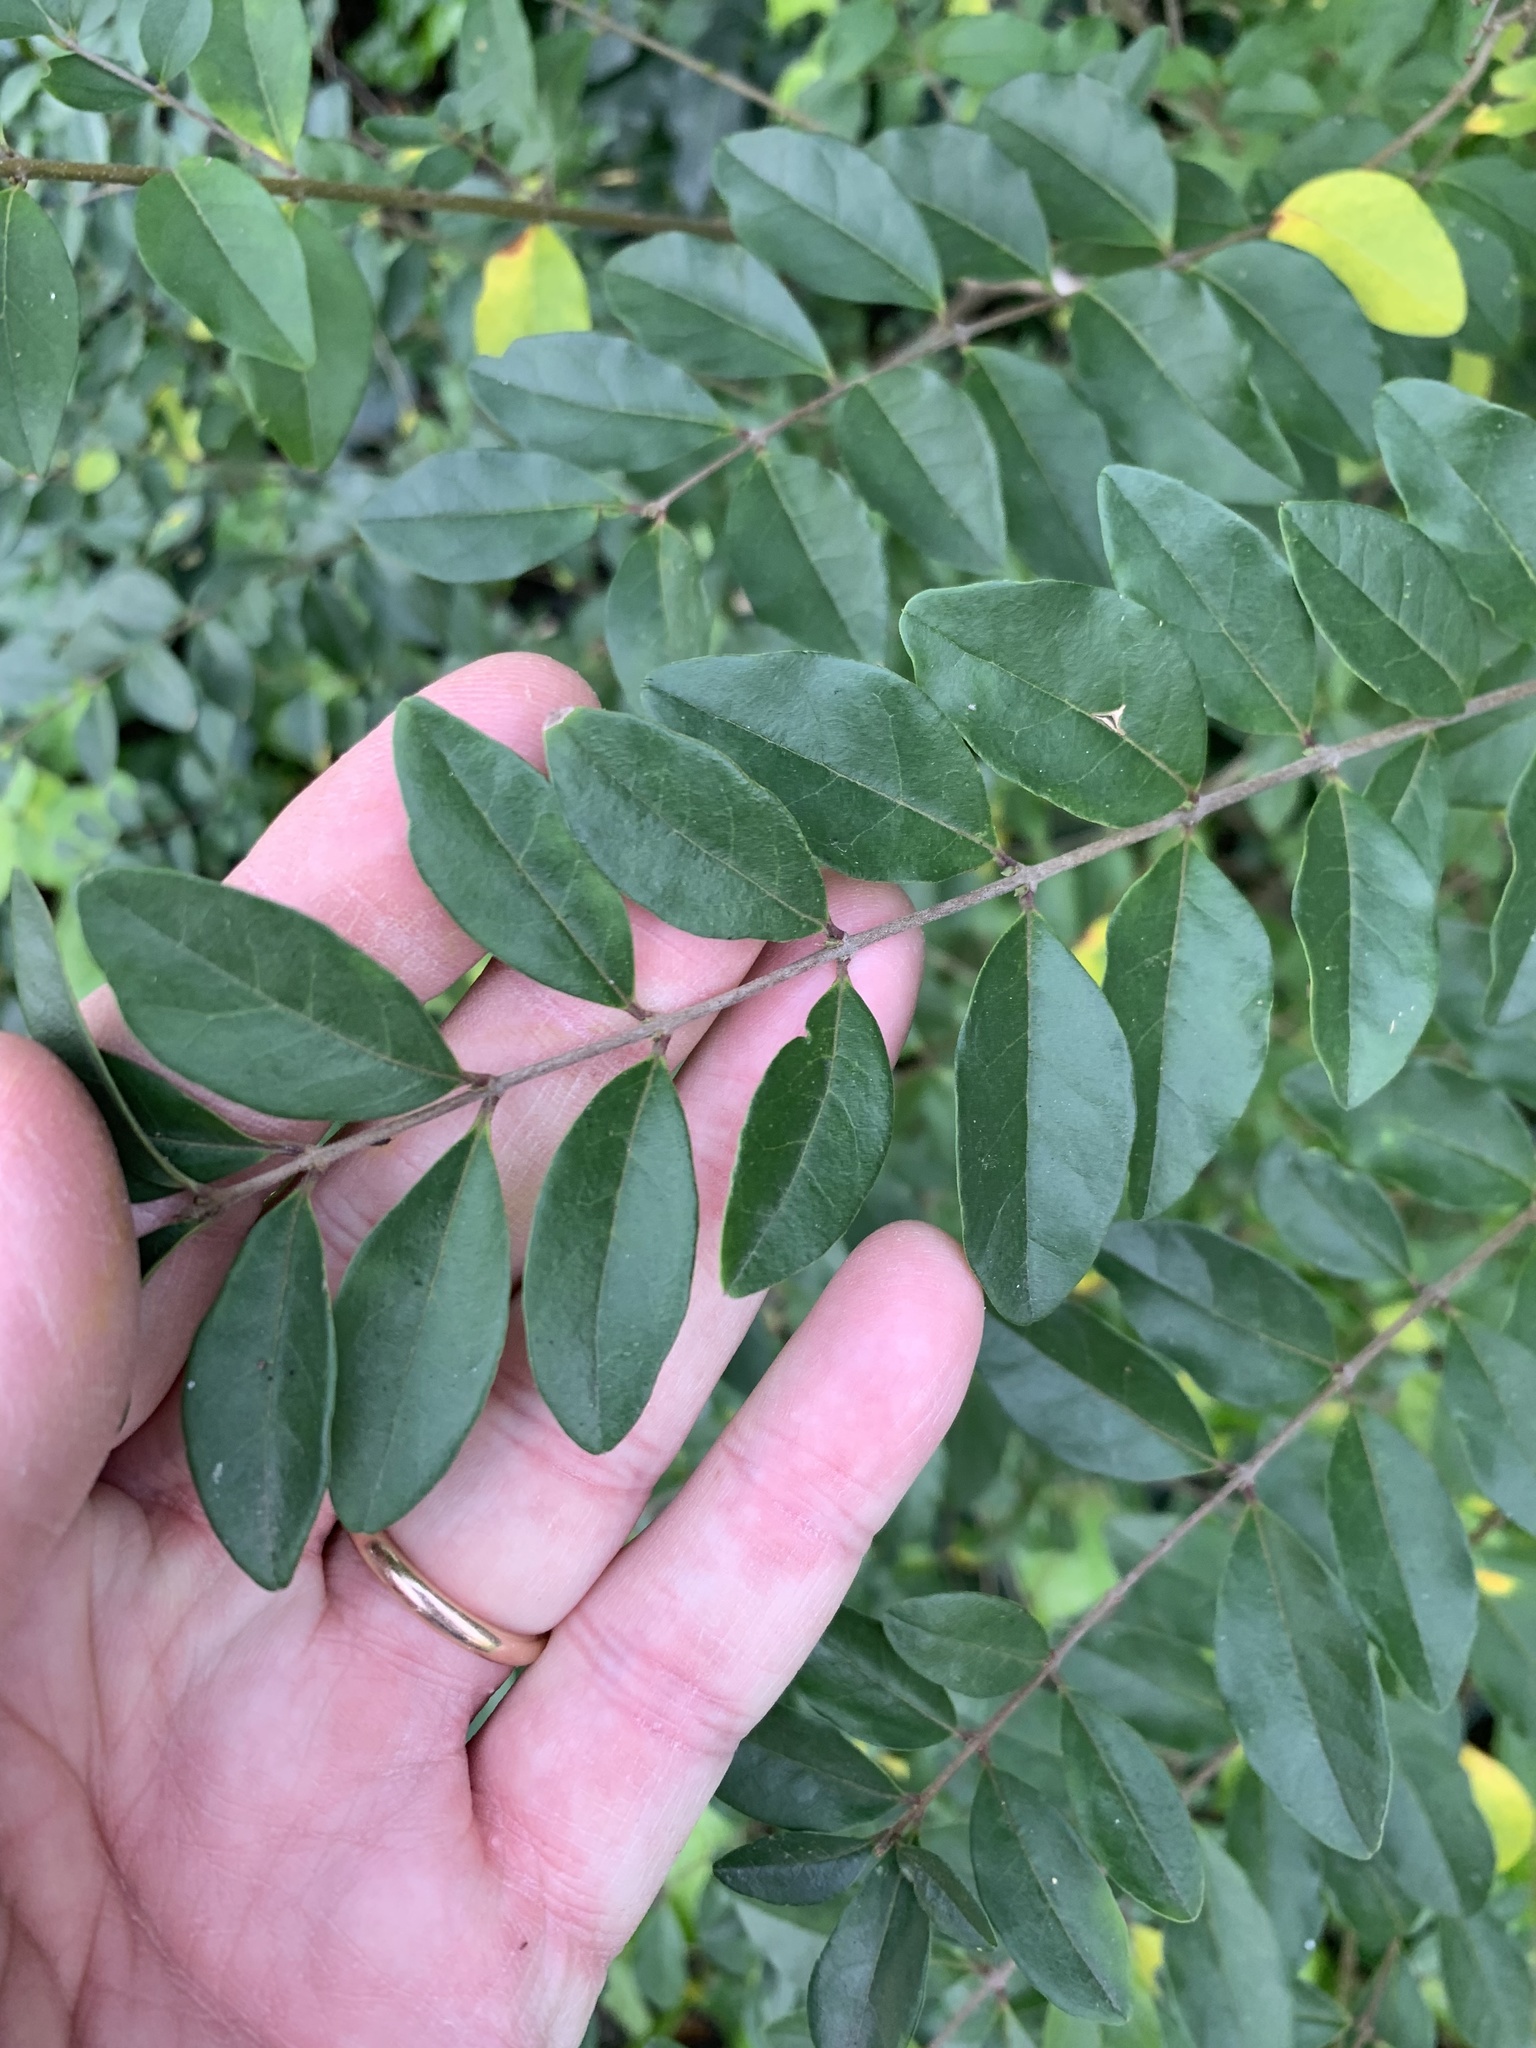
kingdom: Plantae
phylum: Tracheophyta
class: Magnoliopsida
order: Lamiales
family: Oleaceae
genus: Ligustrum
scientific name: Ligustrum sinense
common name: Chinese privet
